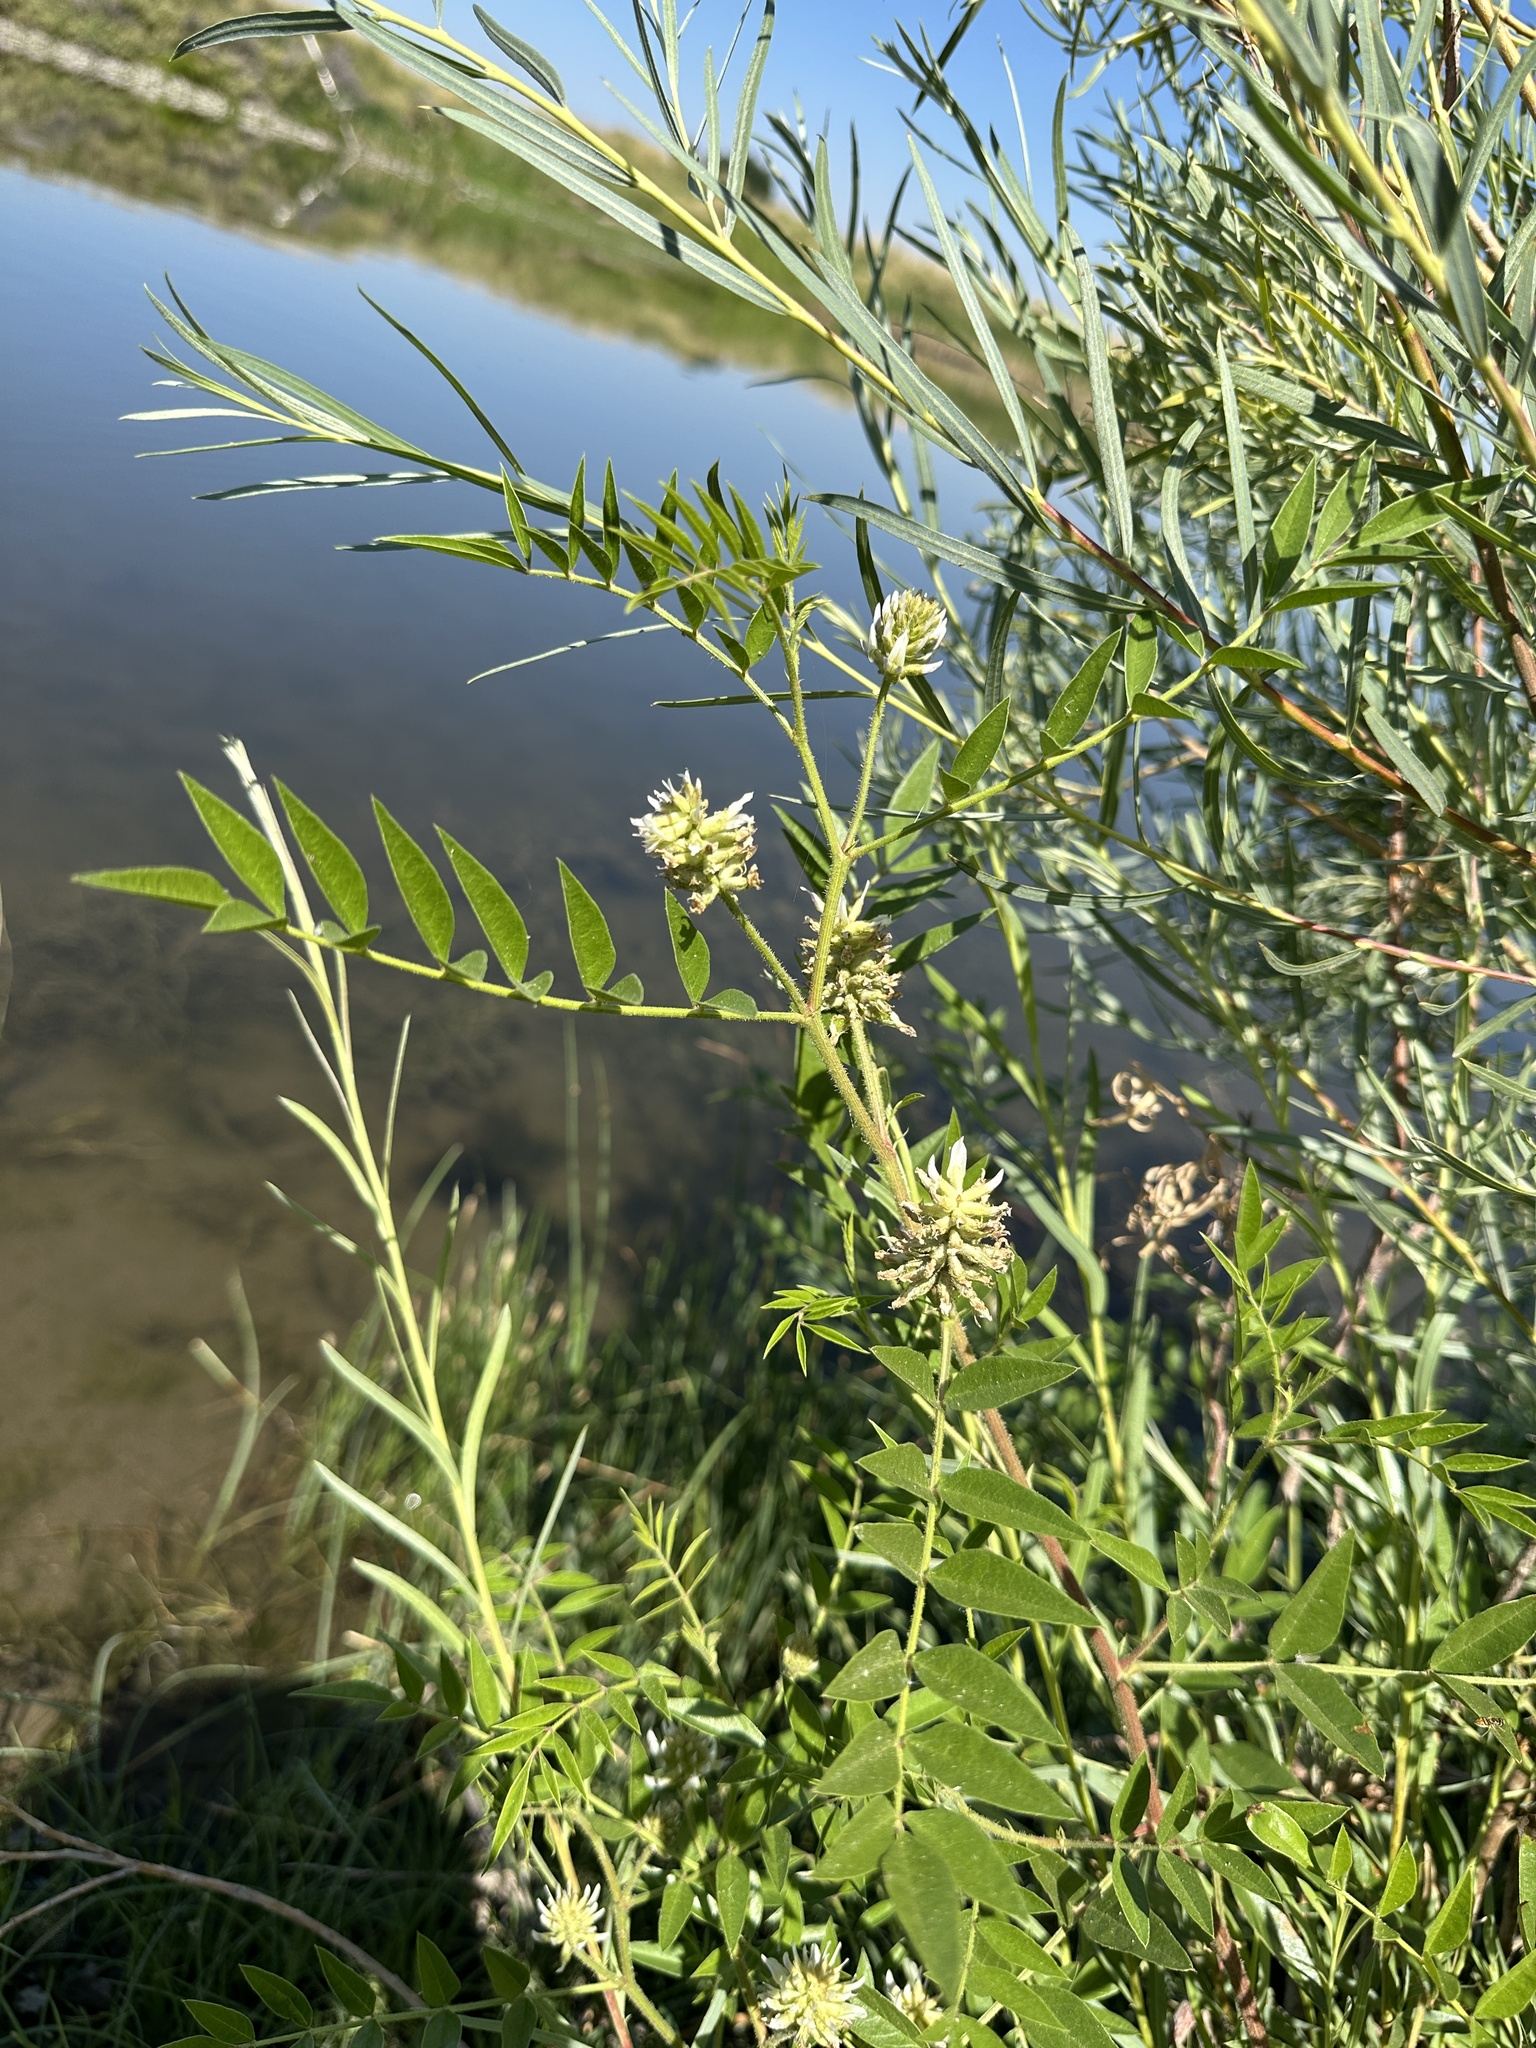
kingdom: Plantae
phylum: Tracheophyta
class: Magnoliopsida
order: Fabales
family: Fabaceae
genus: Glycyrrhiza
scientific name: Glycyrrhiza lepidota
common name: American liquorice
